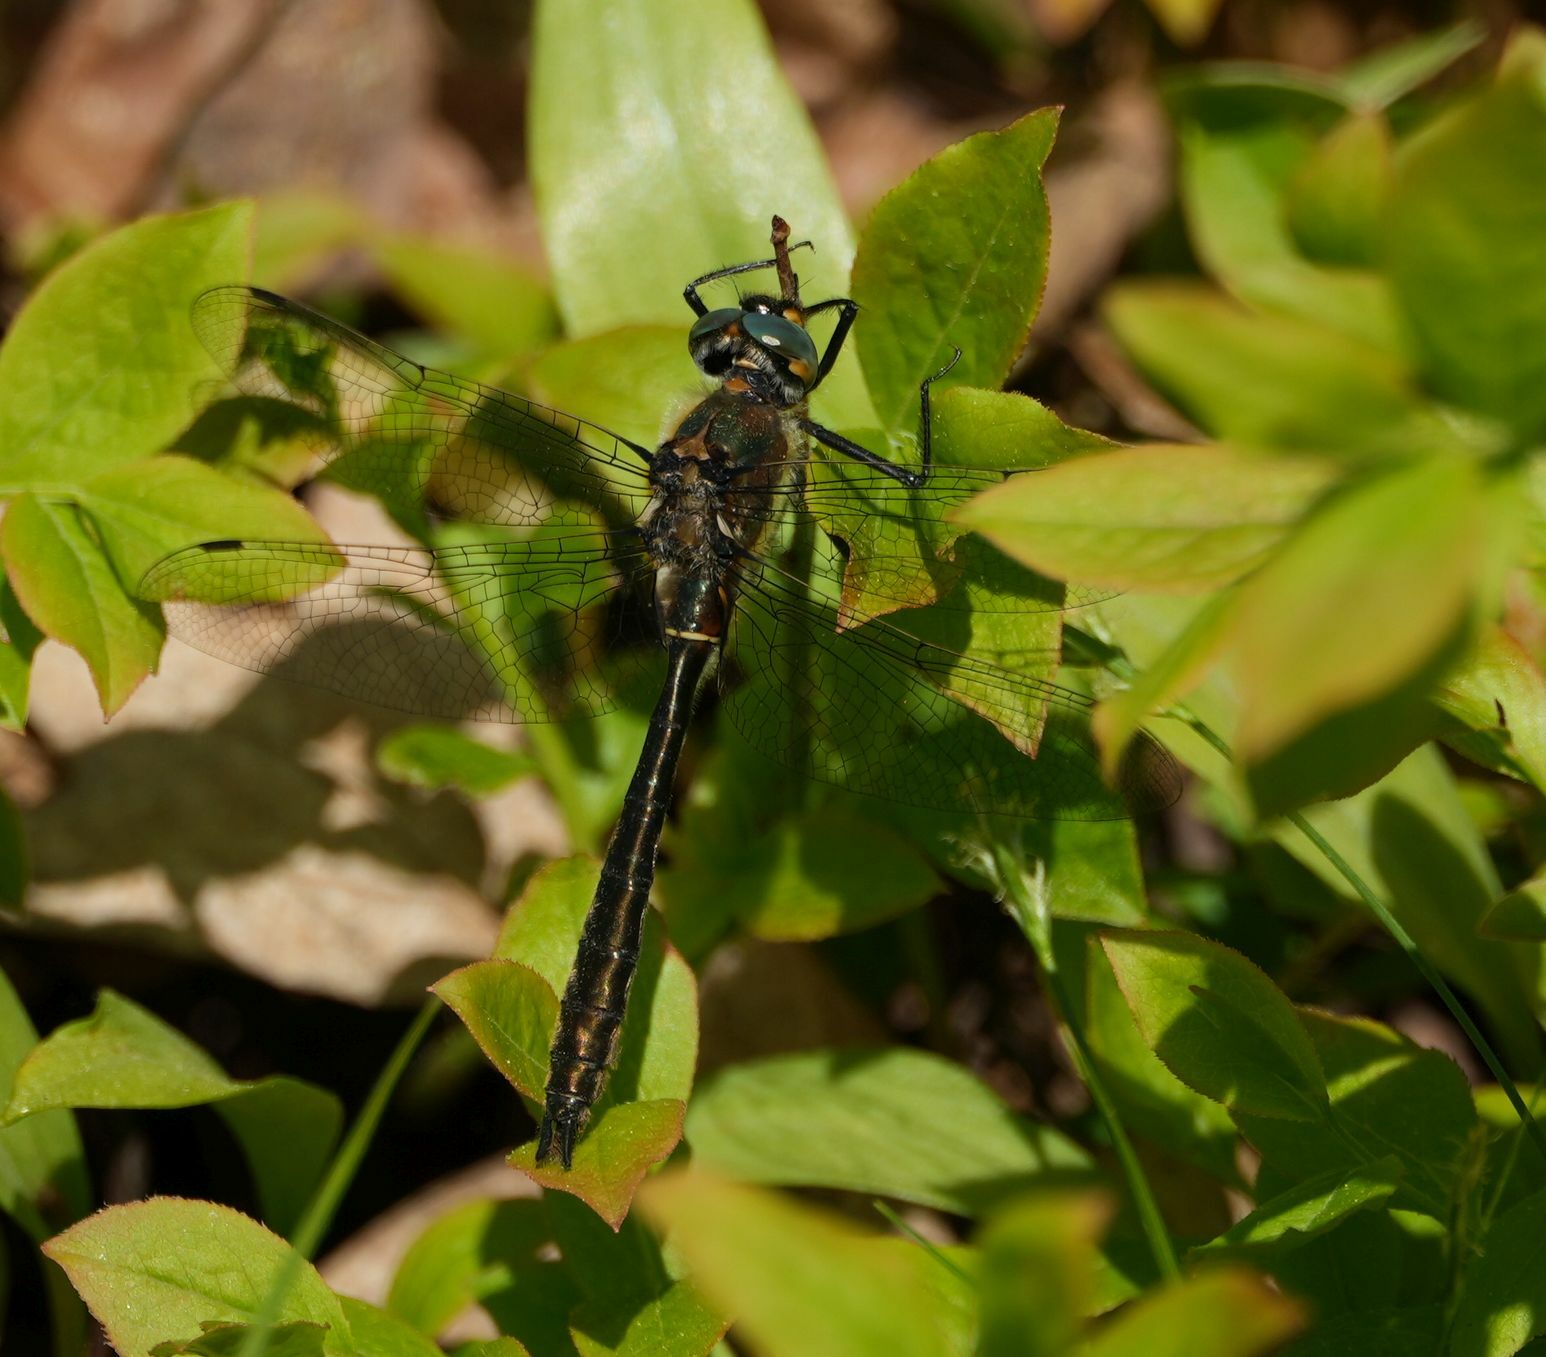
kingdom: Animalia
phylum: Arthropoda
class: Insecta
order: Odonata
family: Corduliidae
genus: Cordulia
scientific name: Cordulia shurtleffii
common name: American emerald
